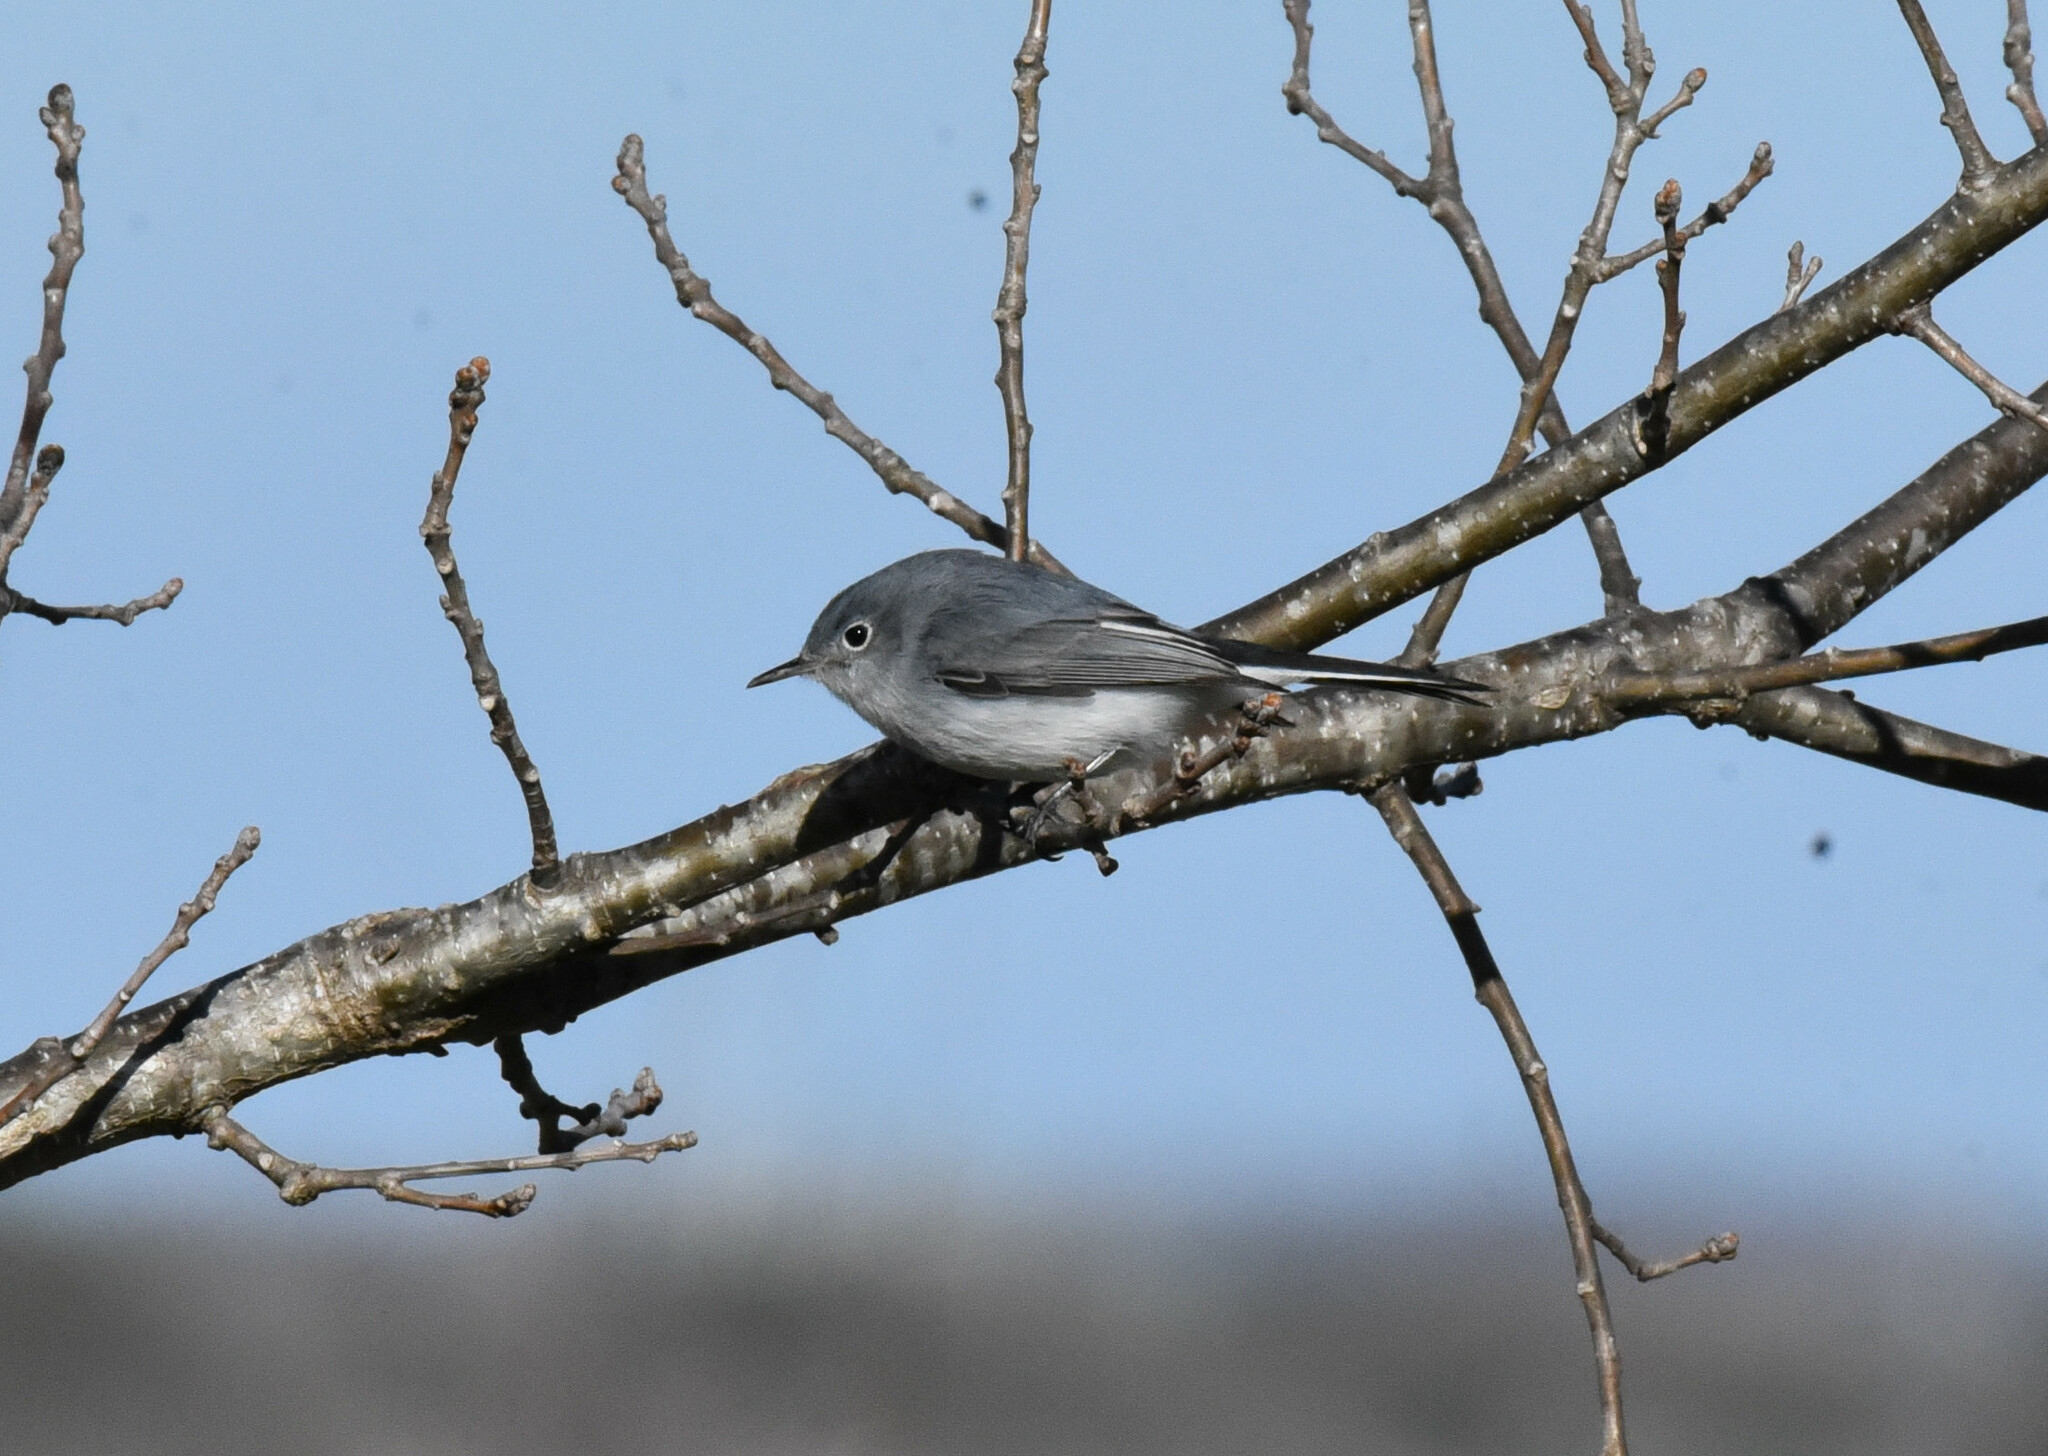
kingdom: Animalia
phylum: Chordata
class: Aves
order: Passeriformes
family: Polioptilidae
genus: Polioptila
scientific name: Polioptila caerulea
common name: Blue-gray gnatcatcher
